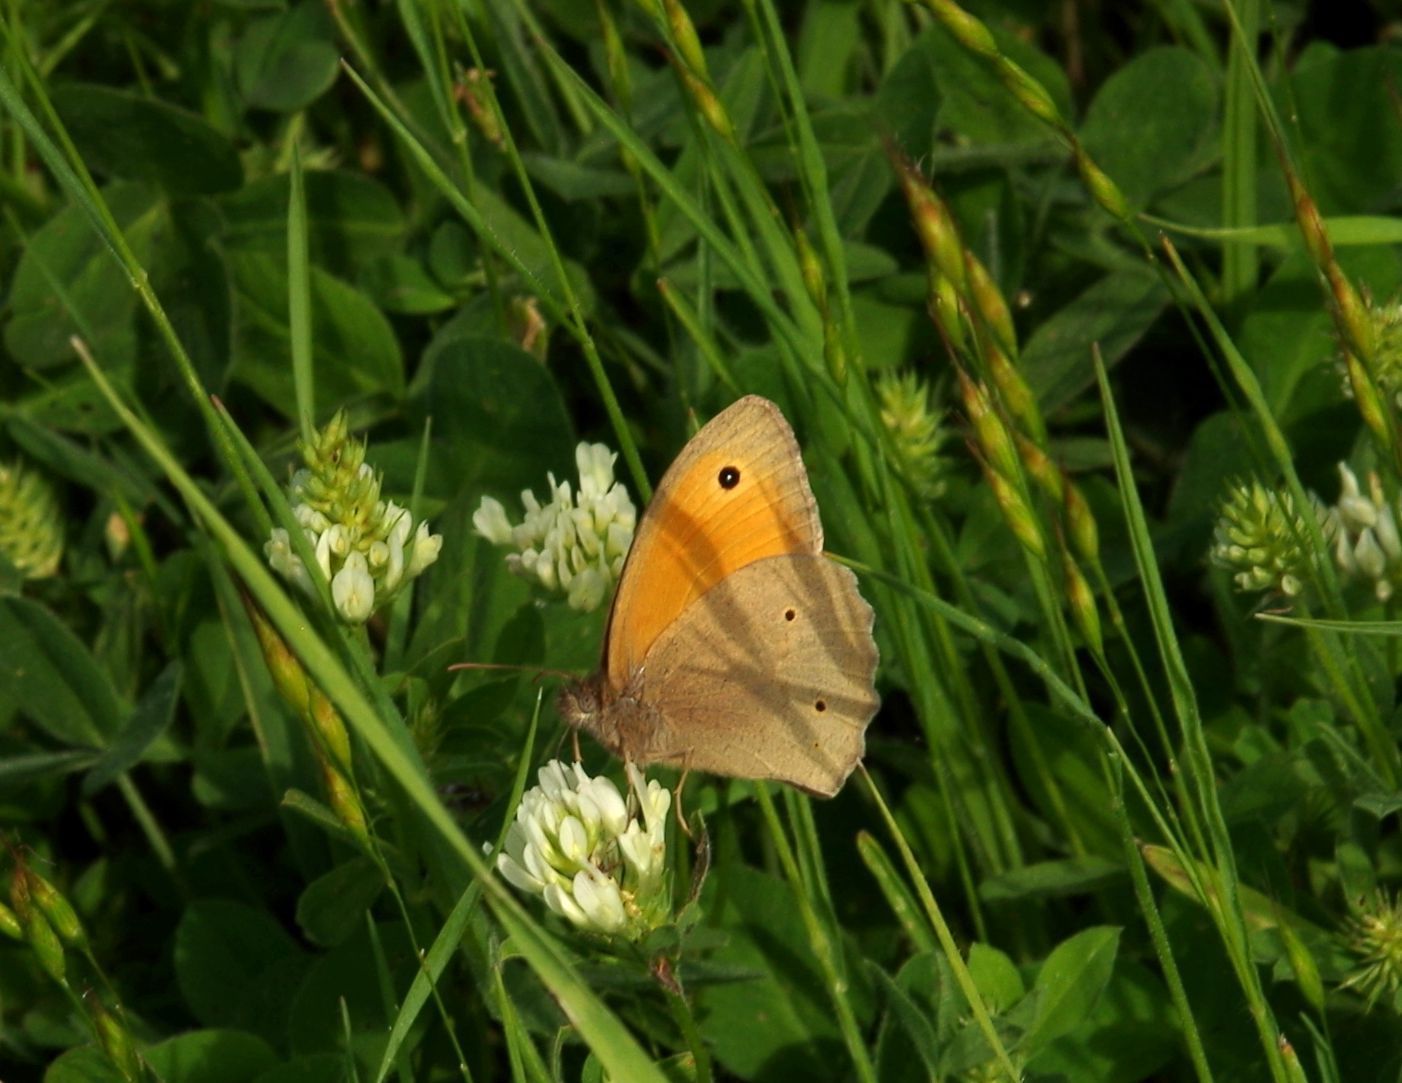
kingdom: Animalia
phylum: Arthropoda
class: Insecta
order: Lepidoptera
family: Nymphalidae
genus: Maniola
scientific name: Maniola jurtina
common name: Meadow brown
